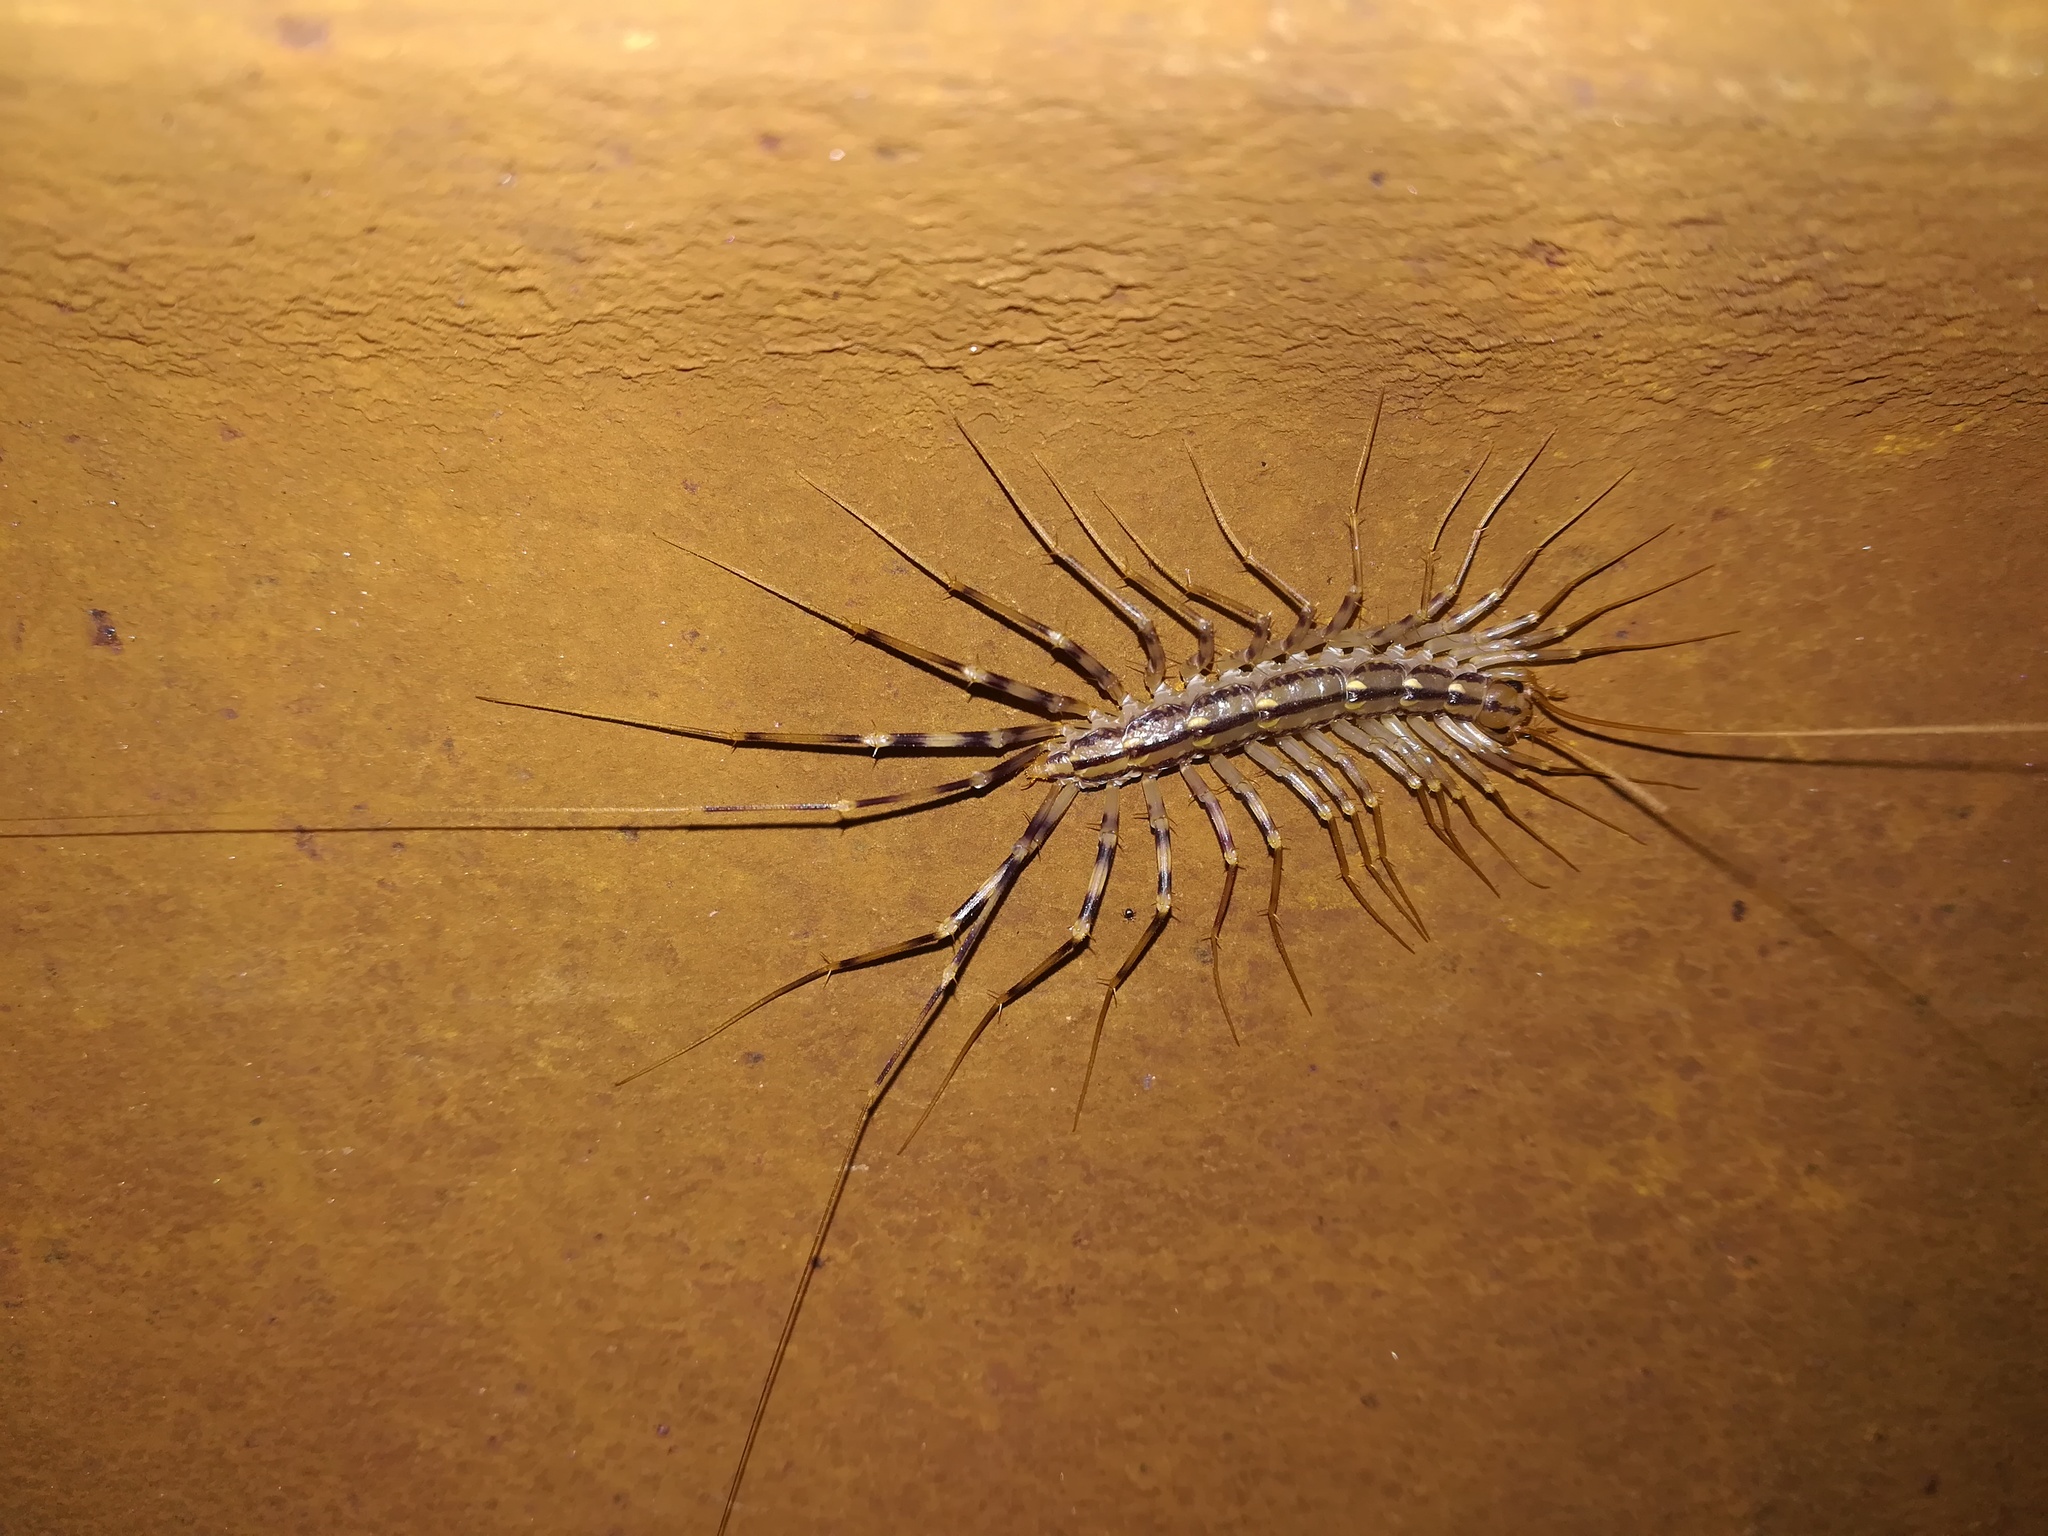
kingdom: Animalia
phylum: Arthropoda
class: Chilopoda
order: Scutigeromorpha
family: Scutigeridae
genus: Scutigera
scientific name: Scutigera coleoptrata
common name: House centipede
